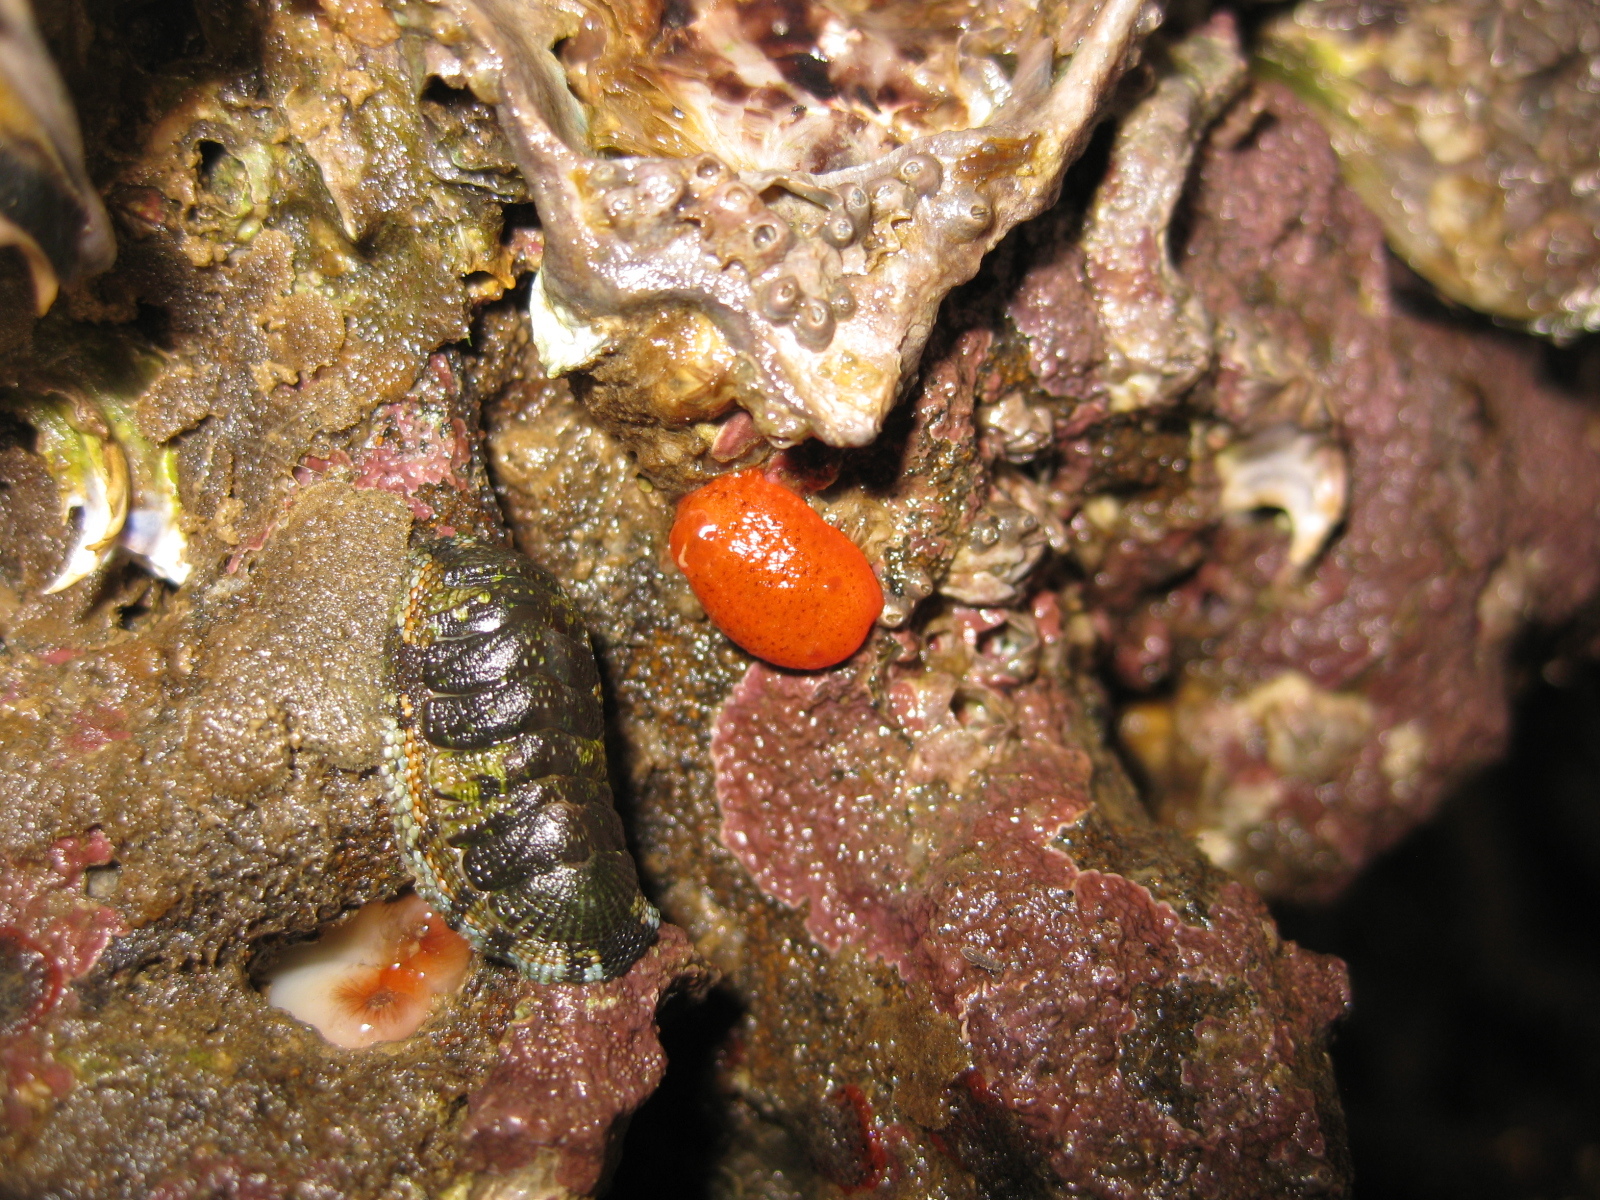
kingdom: Animalia
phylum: Mollusca
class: Gastropoda
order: Nudibranchia
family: Discodorididae
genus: Rostanga
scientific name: Rostanga muscula
